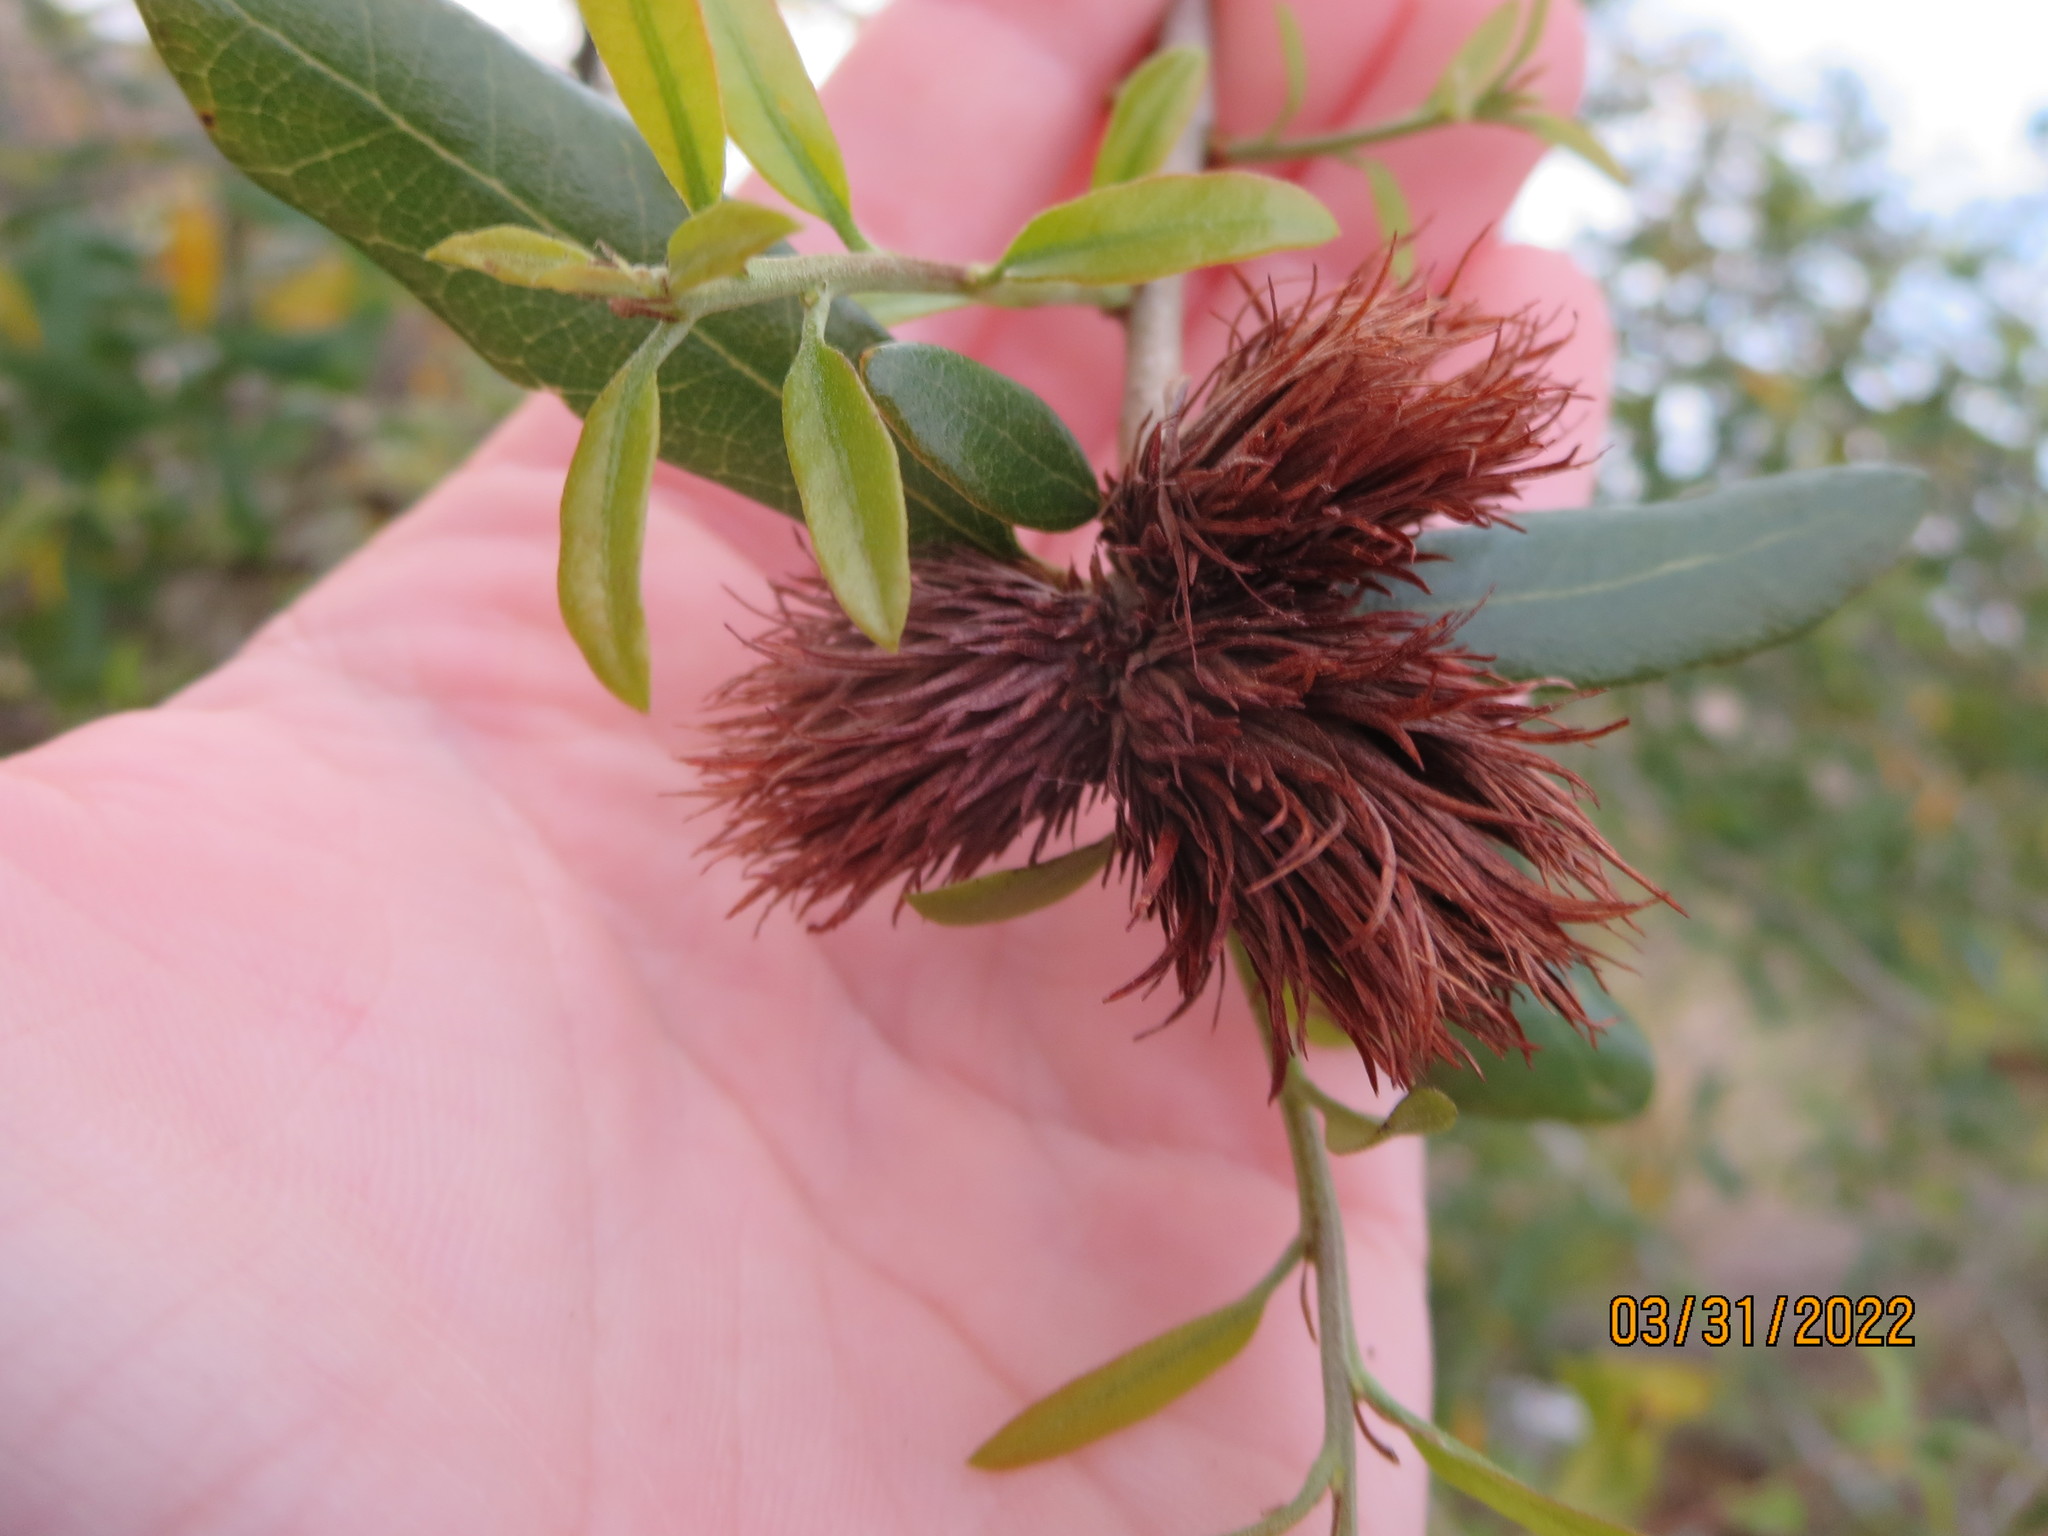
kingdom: Animalia
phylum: Arthropoda
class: Insecta
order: Hymenoptera
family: Cynipidae
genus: Andricus
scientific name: Andricus quercusfoliatus
